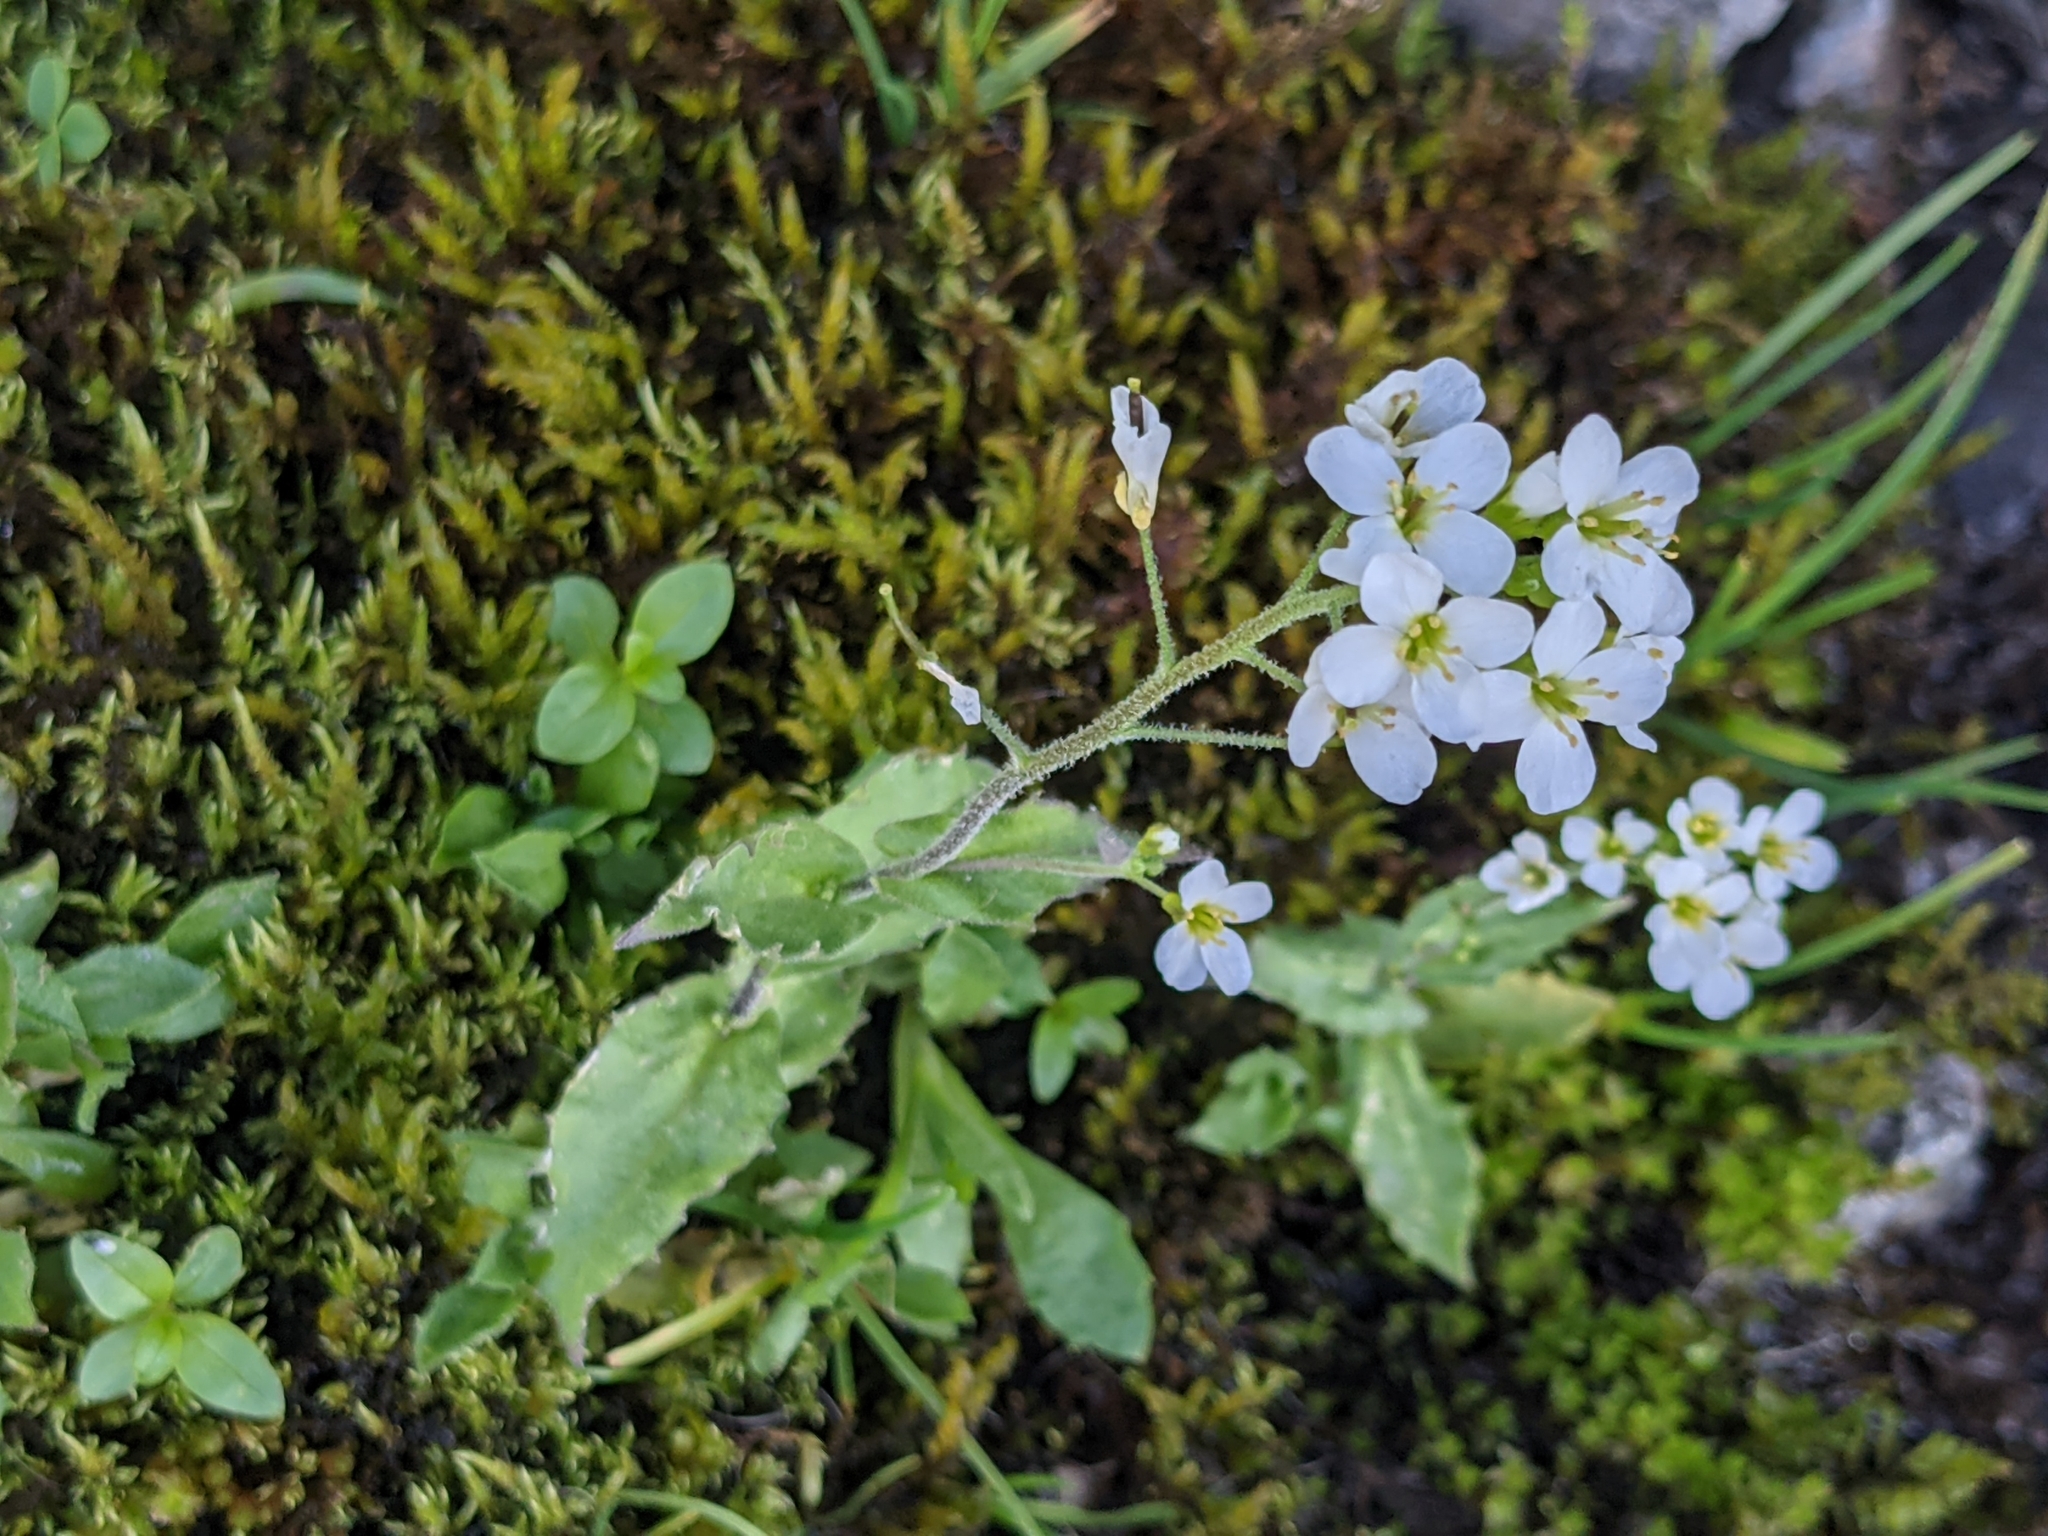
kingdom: Plantae
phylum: Tracheophyta
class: Magnoliopsida
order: Brassicales
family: Brassicaceae
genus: Arabis
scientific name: Arabis alpina
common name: Alpine rock-cress
